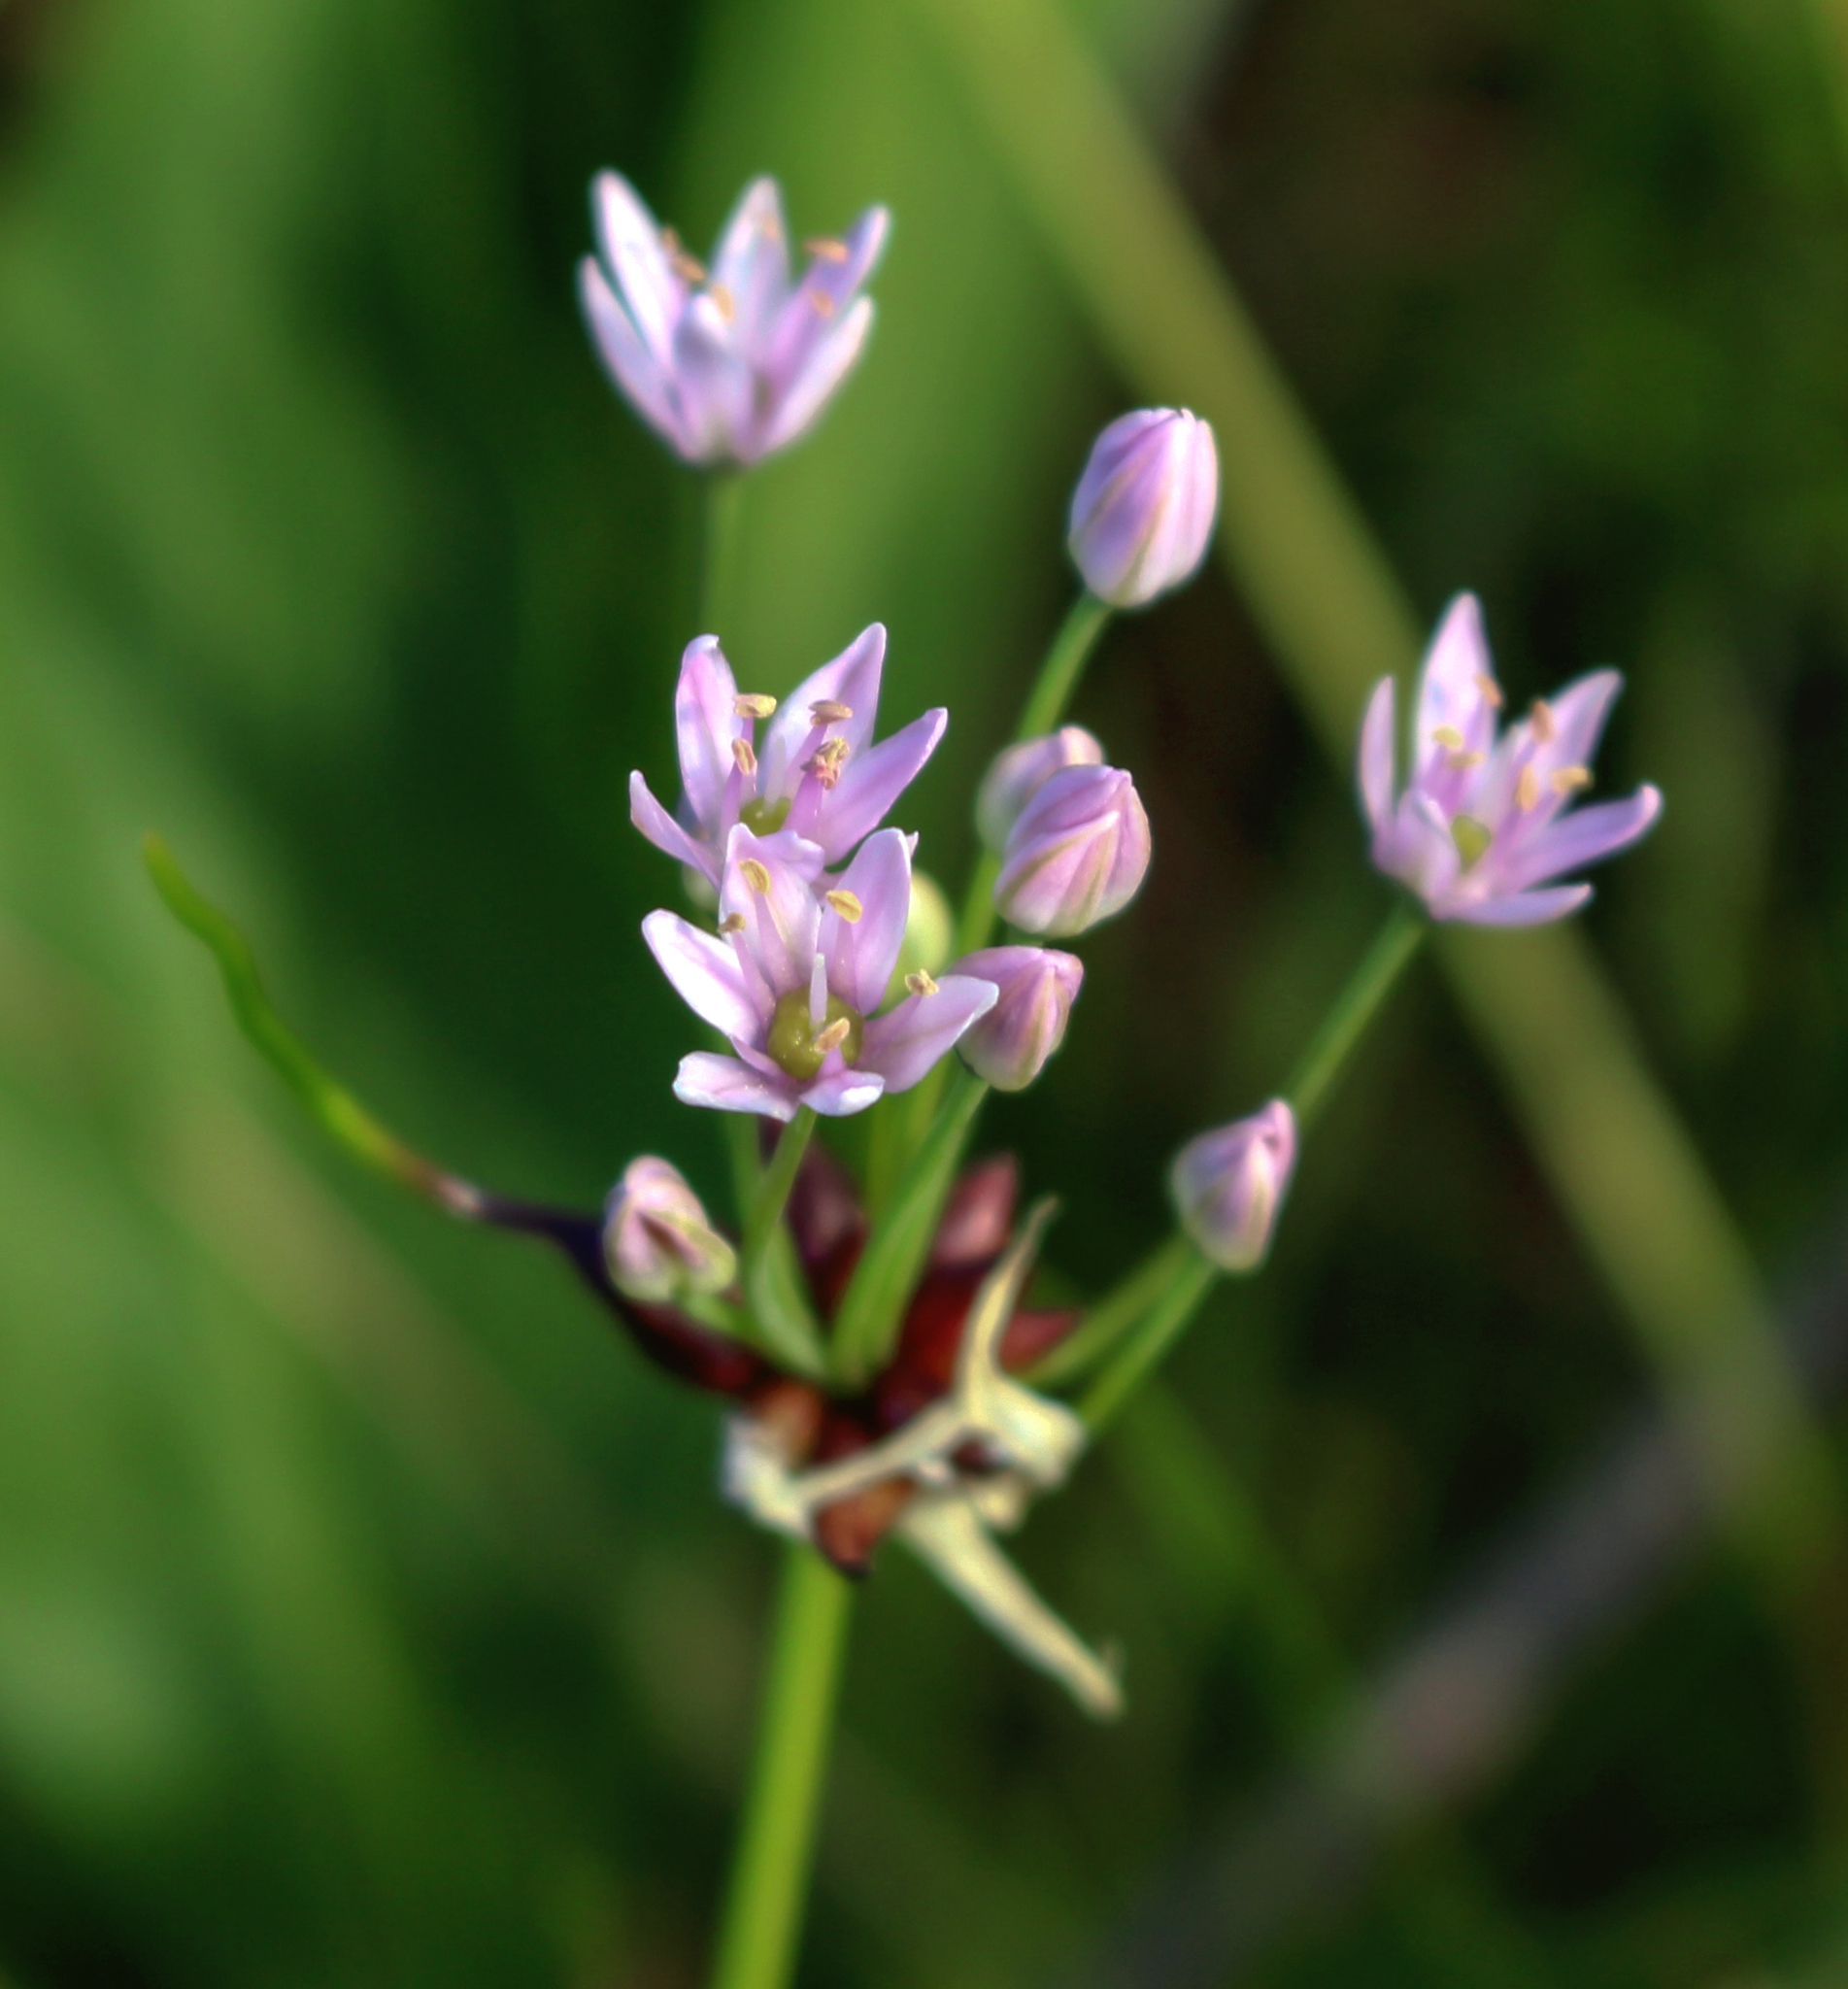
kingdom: Plantae
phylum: Tracheophyta
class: Liliopsida
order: Asparagales
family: Amaryllidaceae
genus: Allium
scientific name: Allium canadense
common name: Meadow garlic
